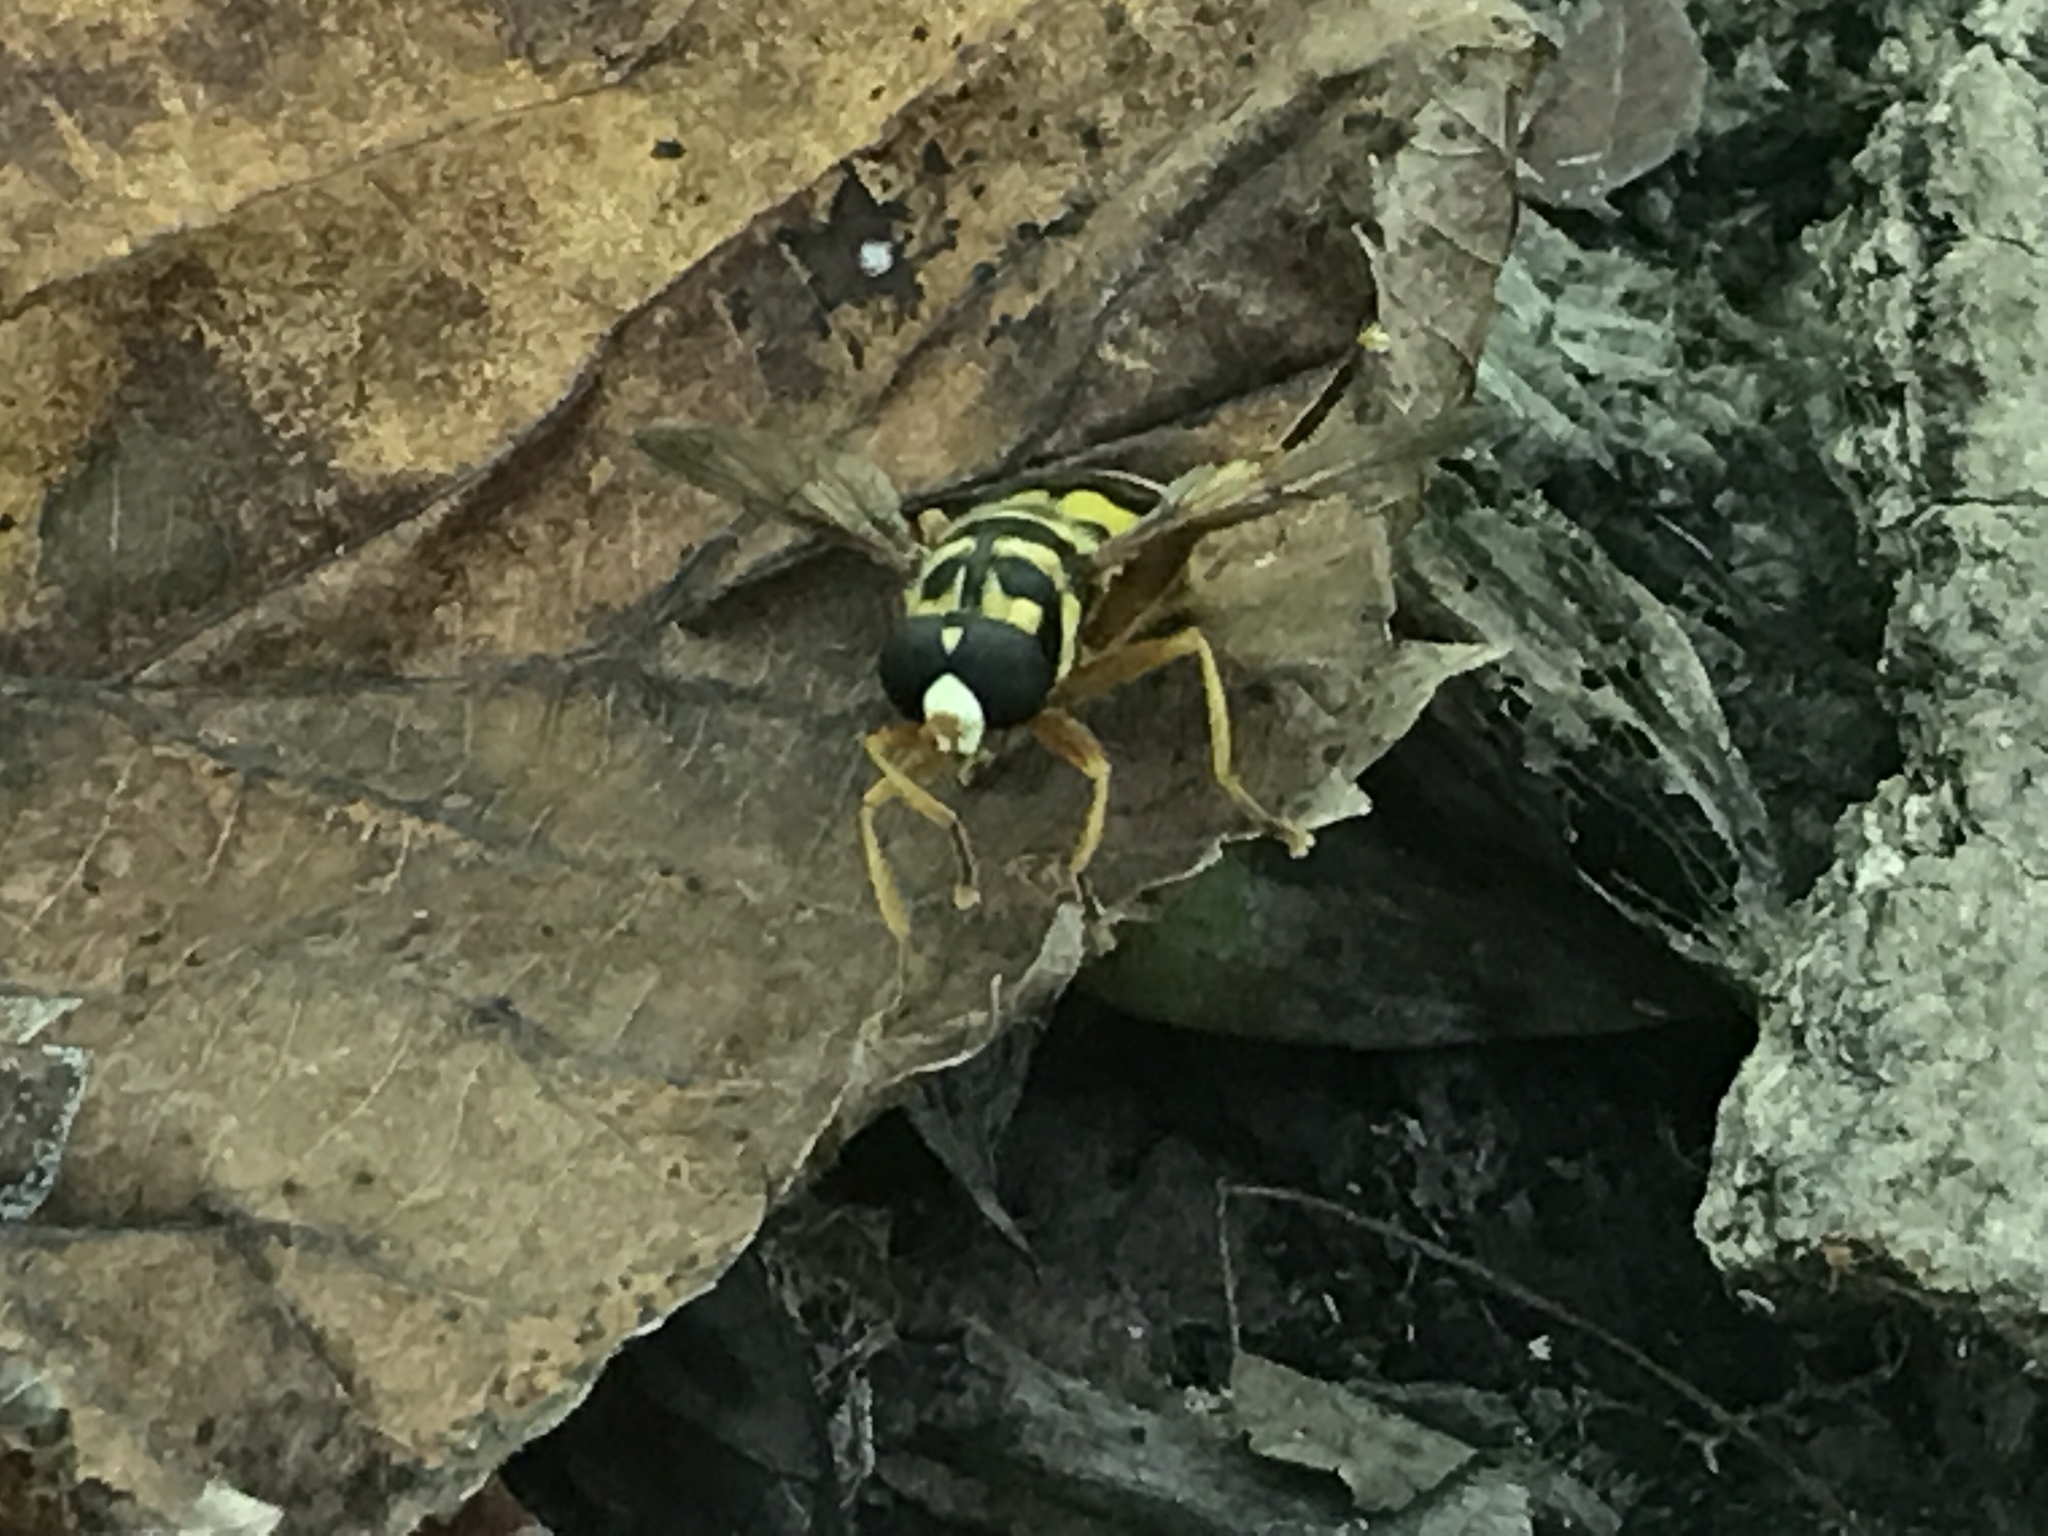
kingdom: Animalia
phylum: Arthropoda
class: Insecta
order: Diptera
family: Syrphidae
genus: Milesia
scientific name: Milesia virginiensis
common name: Virginia giant
